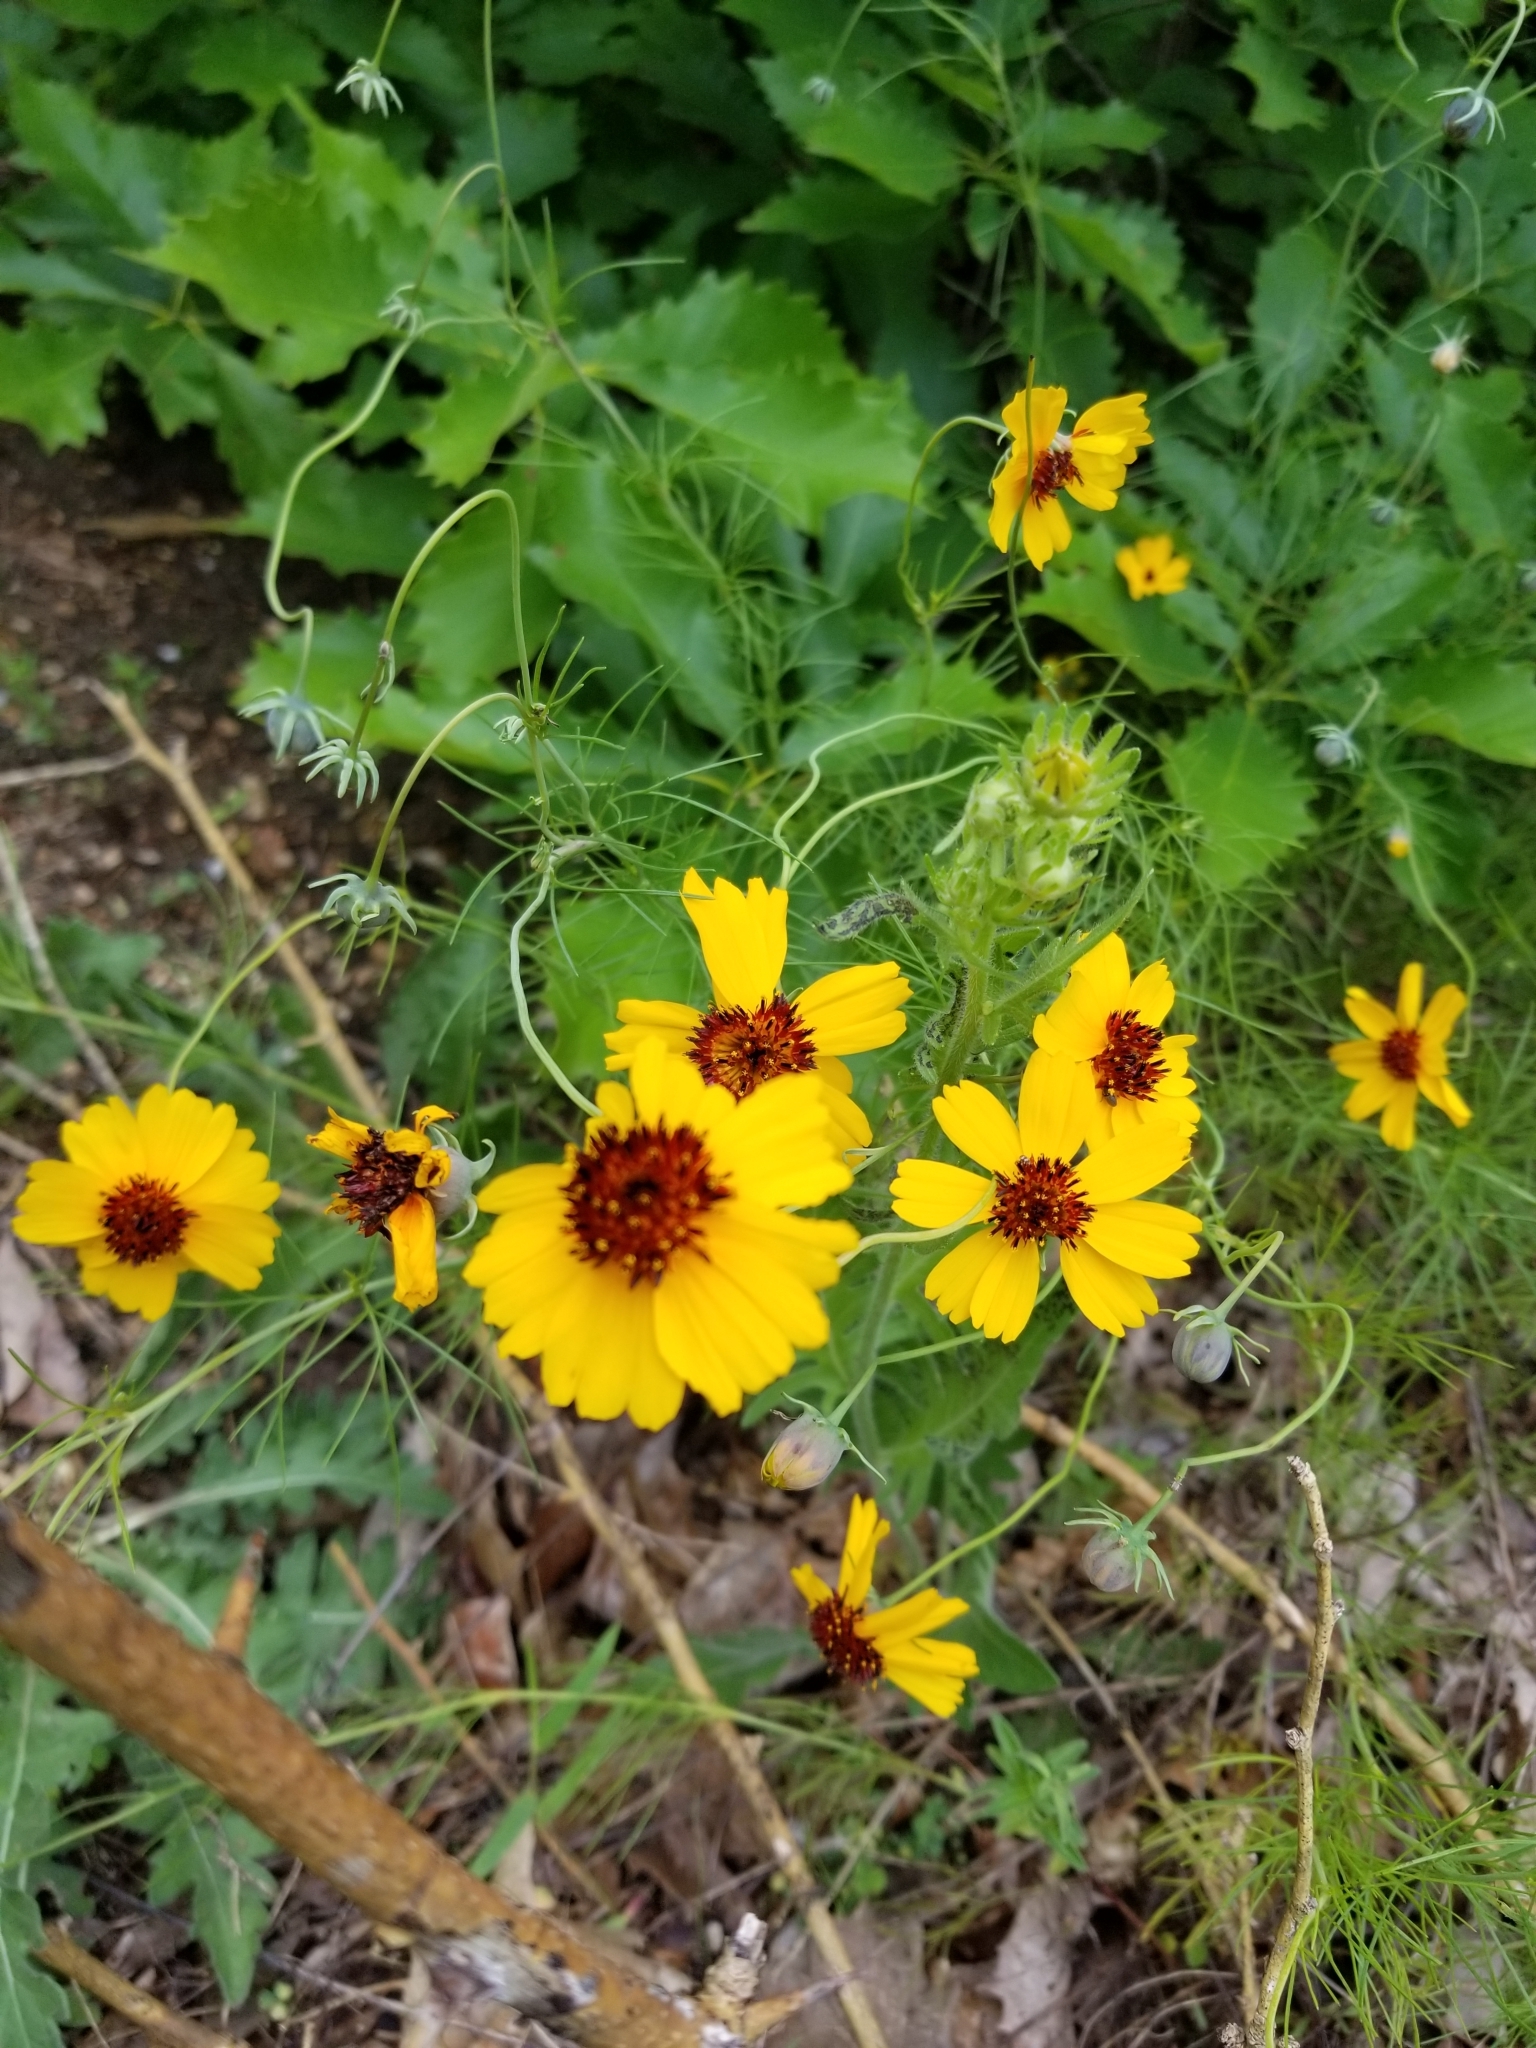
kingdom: Plantae
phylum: Tracheophyta
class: Magnoliopsida
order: Asterales
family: Asteraceae
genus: Thelesperma
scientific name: Thelesperma filifolium
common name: Stiff greenthread
